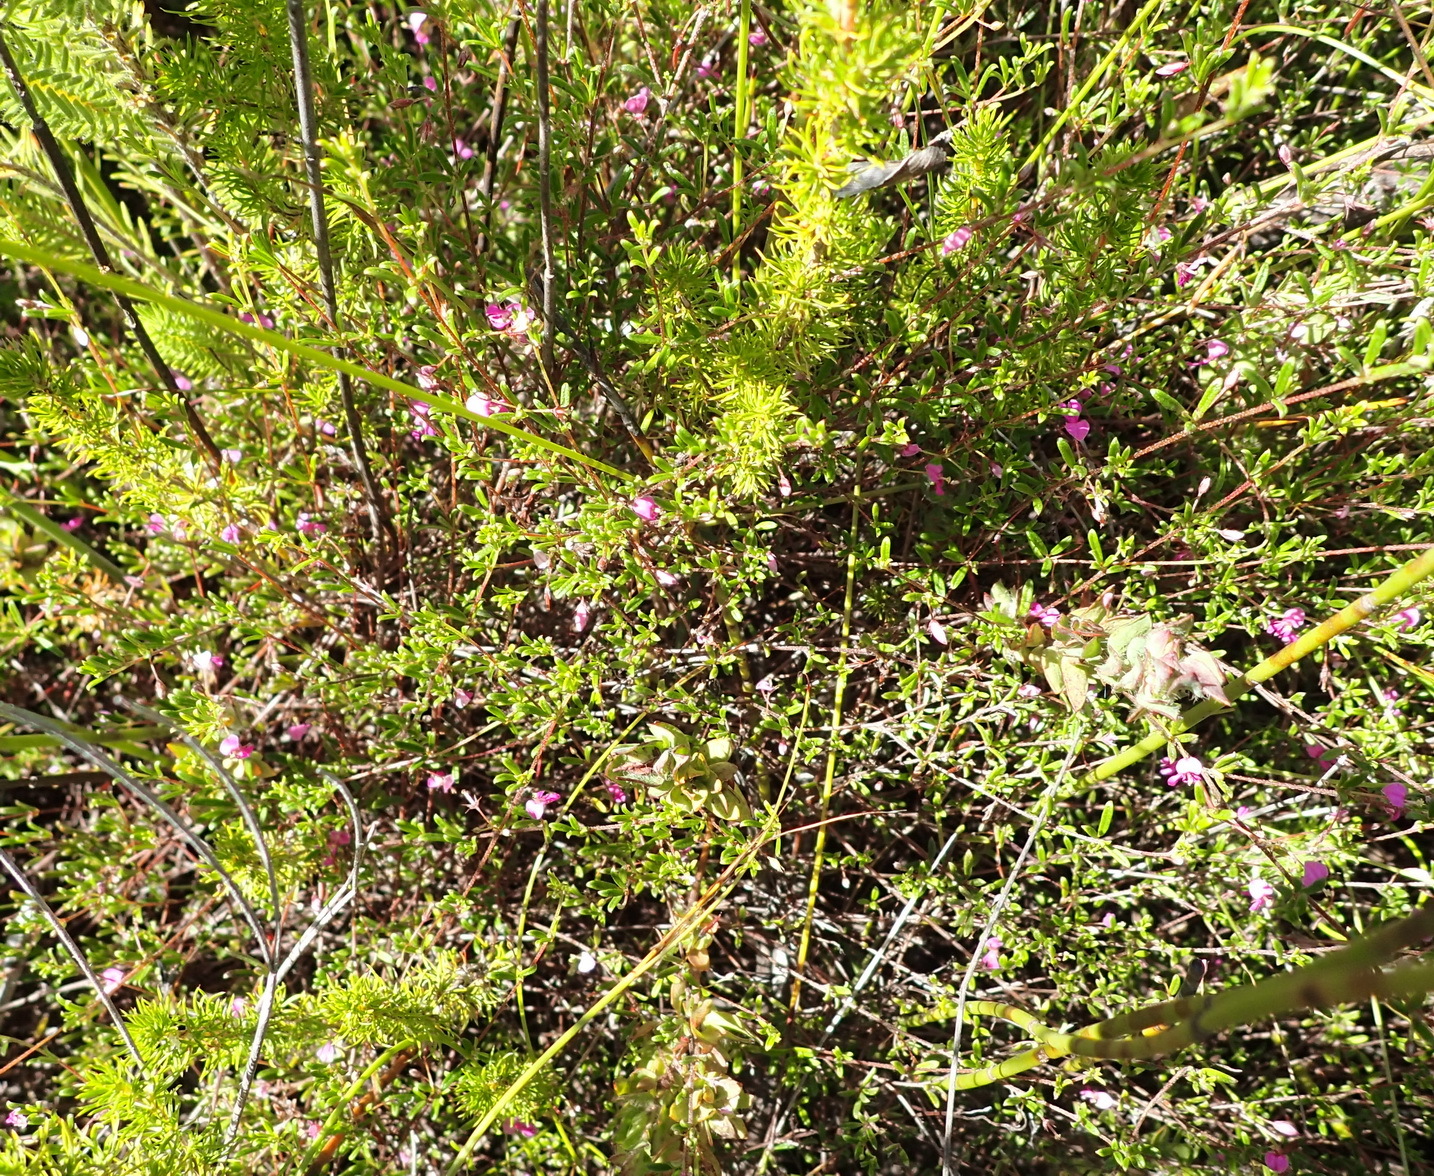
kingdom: Plantae
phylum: Tracheophyta
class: Magnoliopsida
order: Fabales
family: Fabaceae
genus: Indigofera
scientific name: Indigofera setosa
